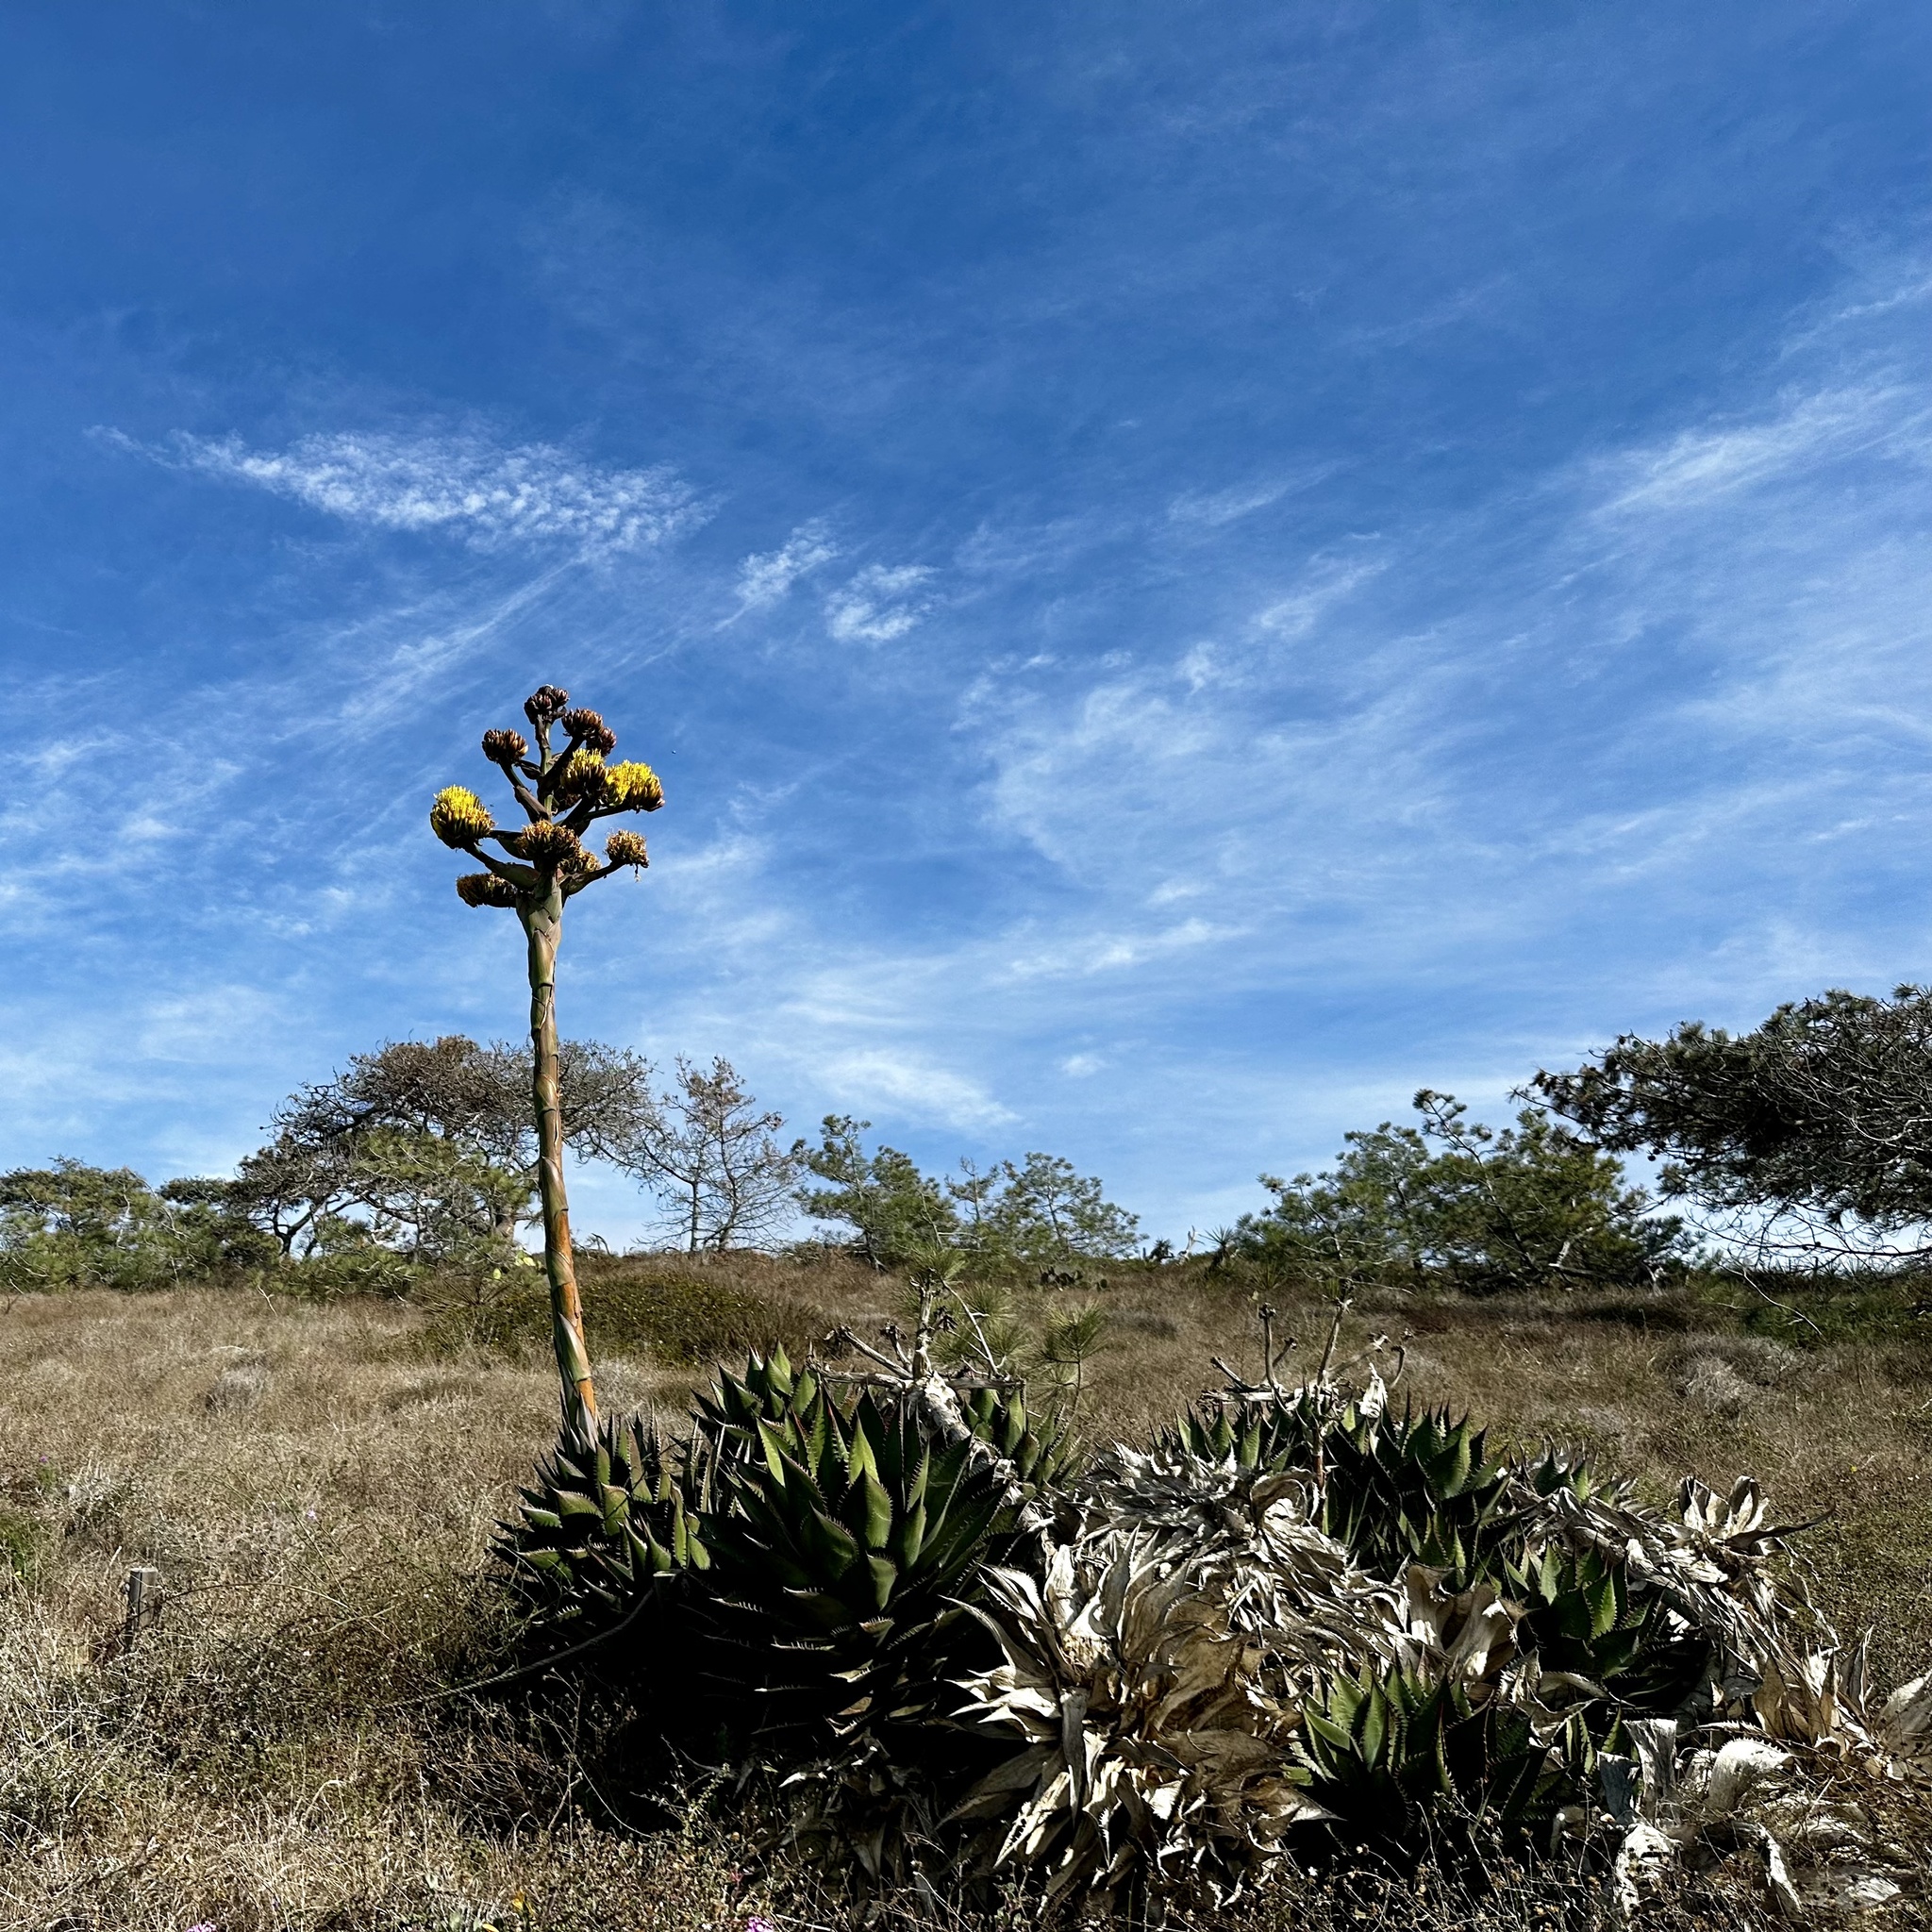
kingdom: Plantae
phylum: Tracheophyta
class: Liliopsida
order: Asparagales
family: Asparagaceae
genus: Agave
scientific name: Agave shawii
